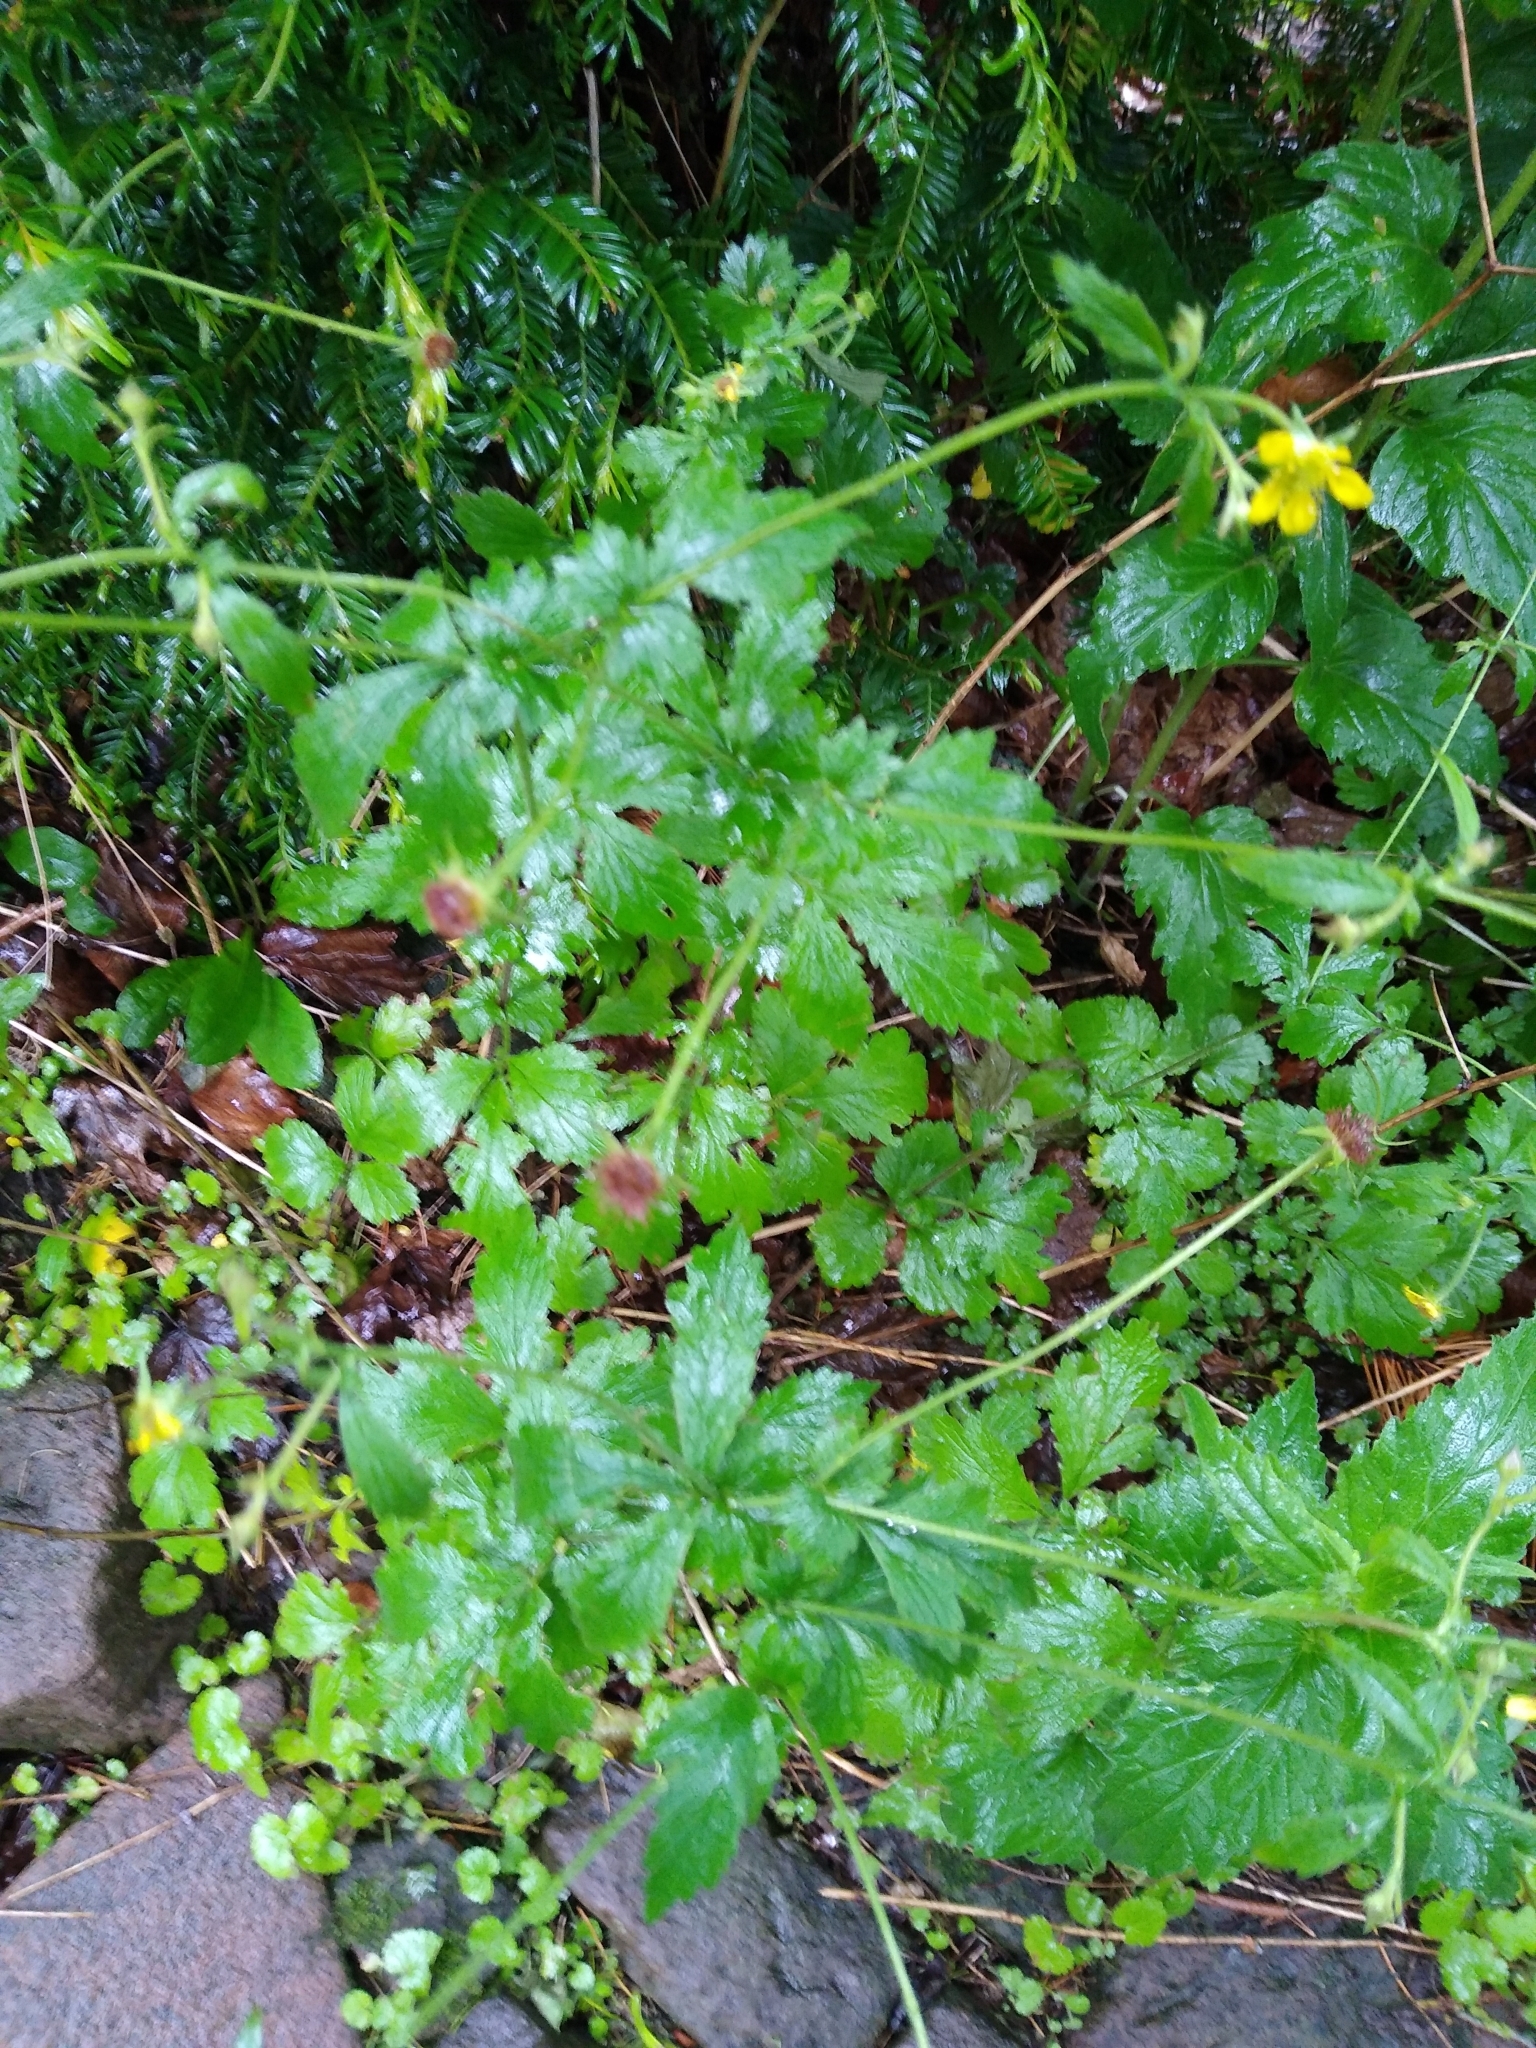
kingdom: Plantae
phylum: Tracheophyta
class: Magnoliopsida
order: Rosales
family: Rosaceae
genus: Geum
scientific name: Geum urbanum
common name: Wood avens
